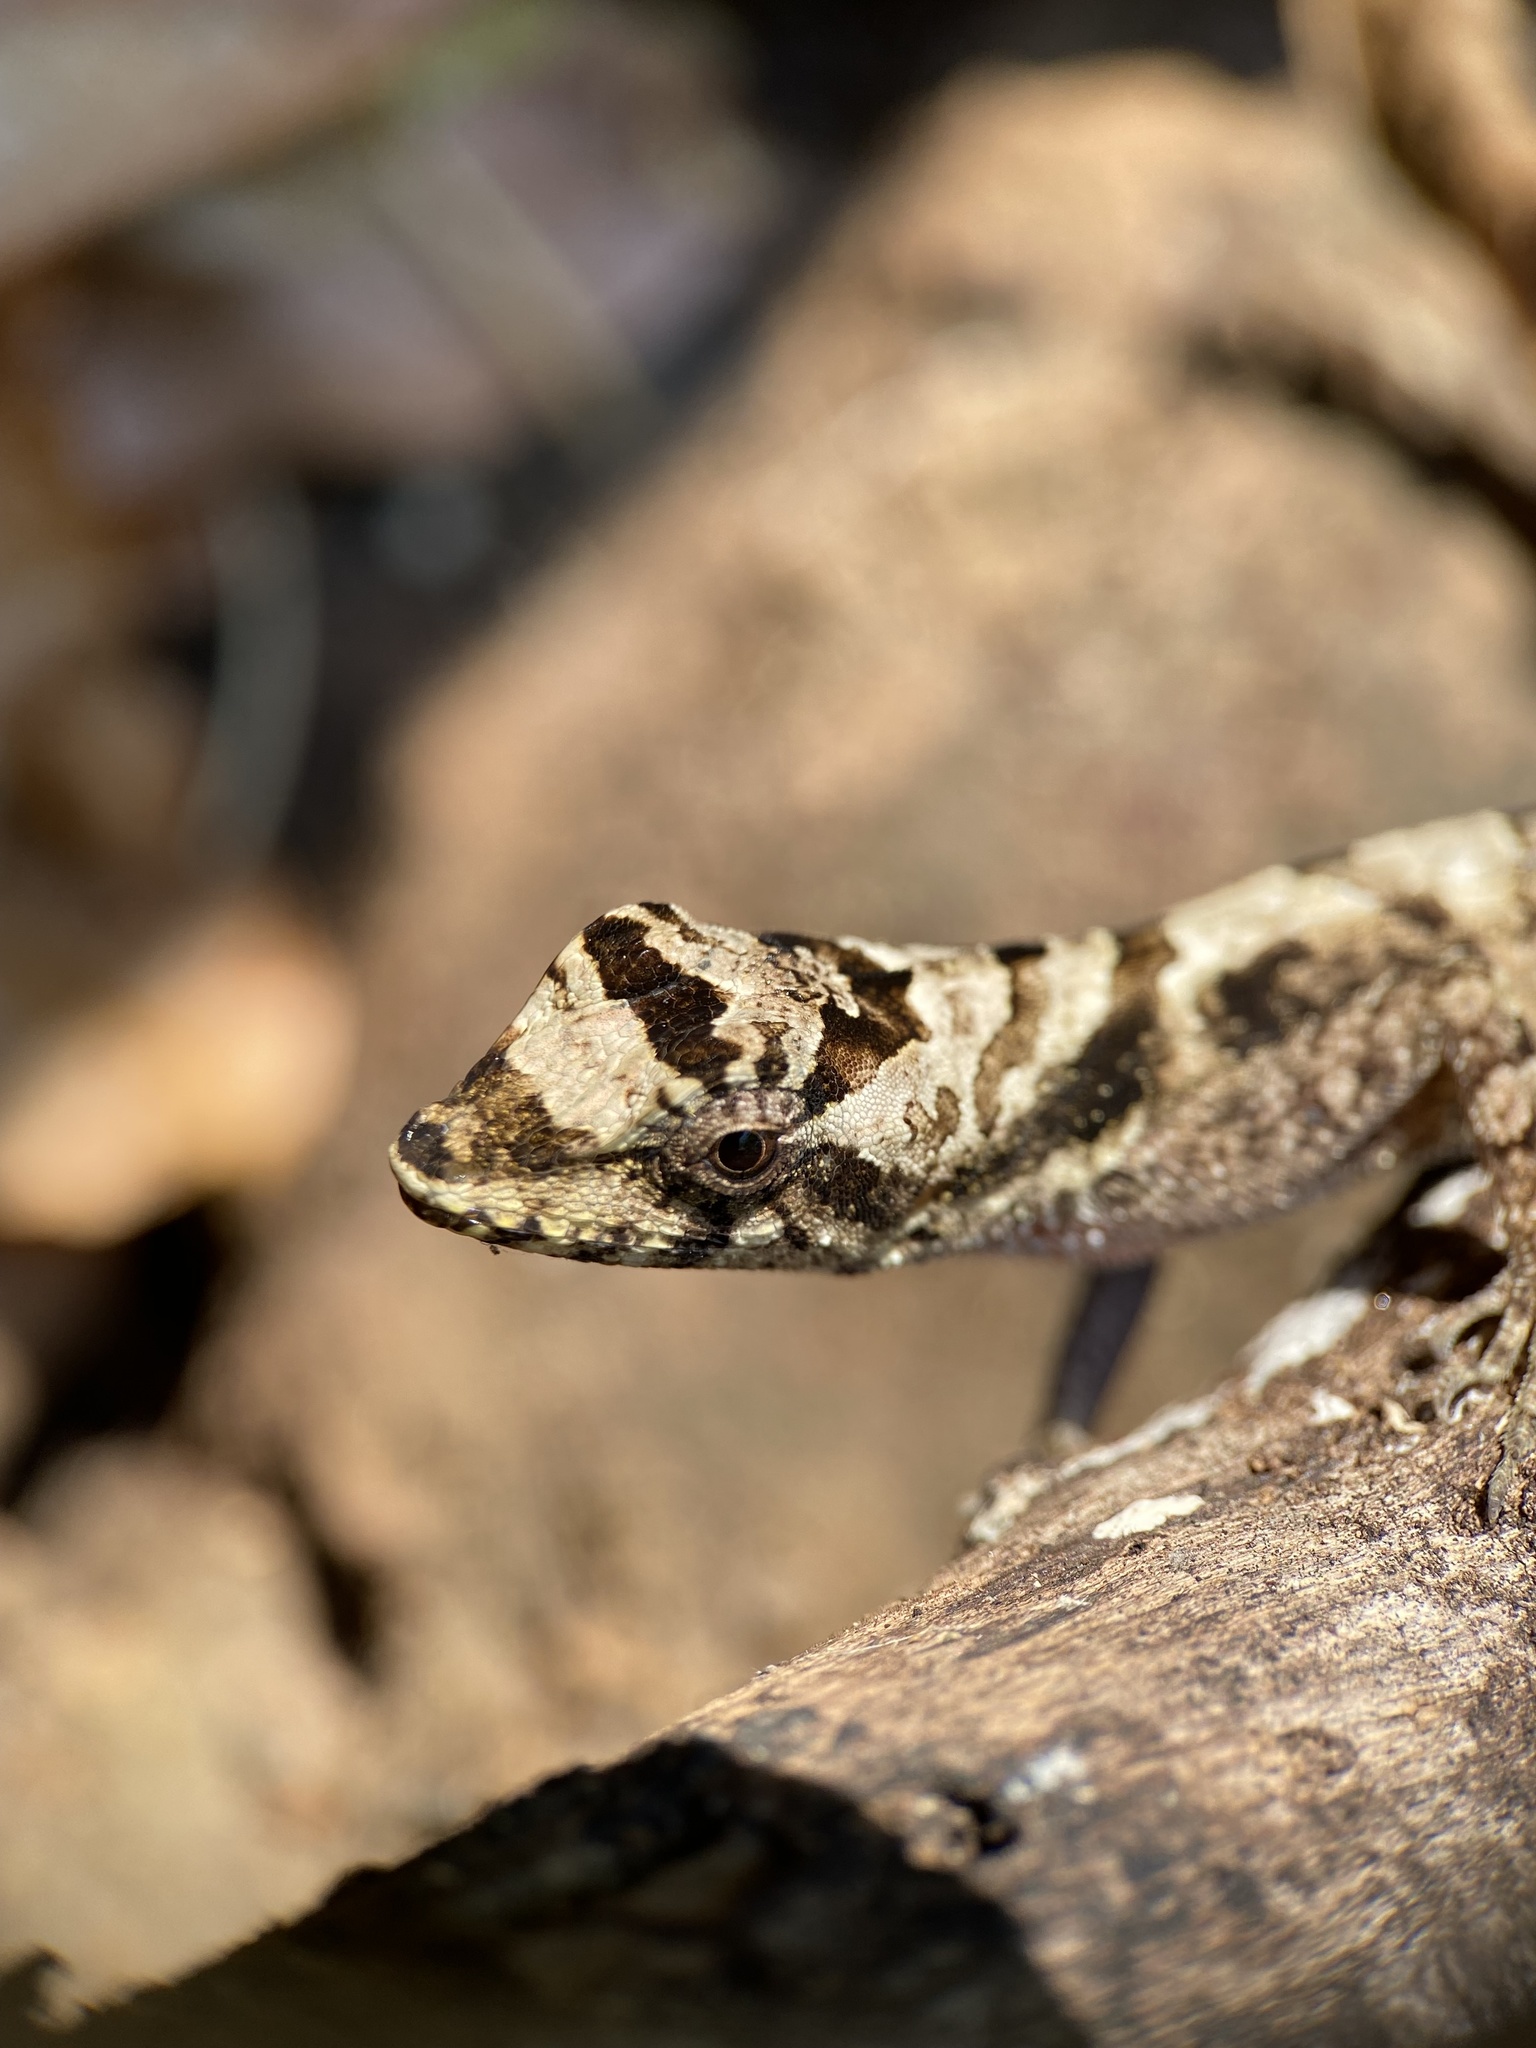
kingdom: Animalia
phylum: Chordata
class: Squamata
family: Dactyloidae
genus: Anolis
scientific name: Anolis serranoi
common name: Serrano’s anole
